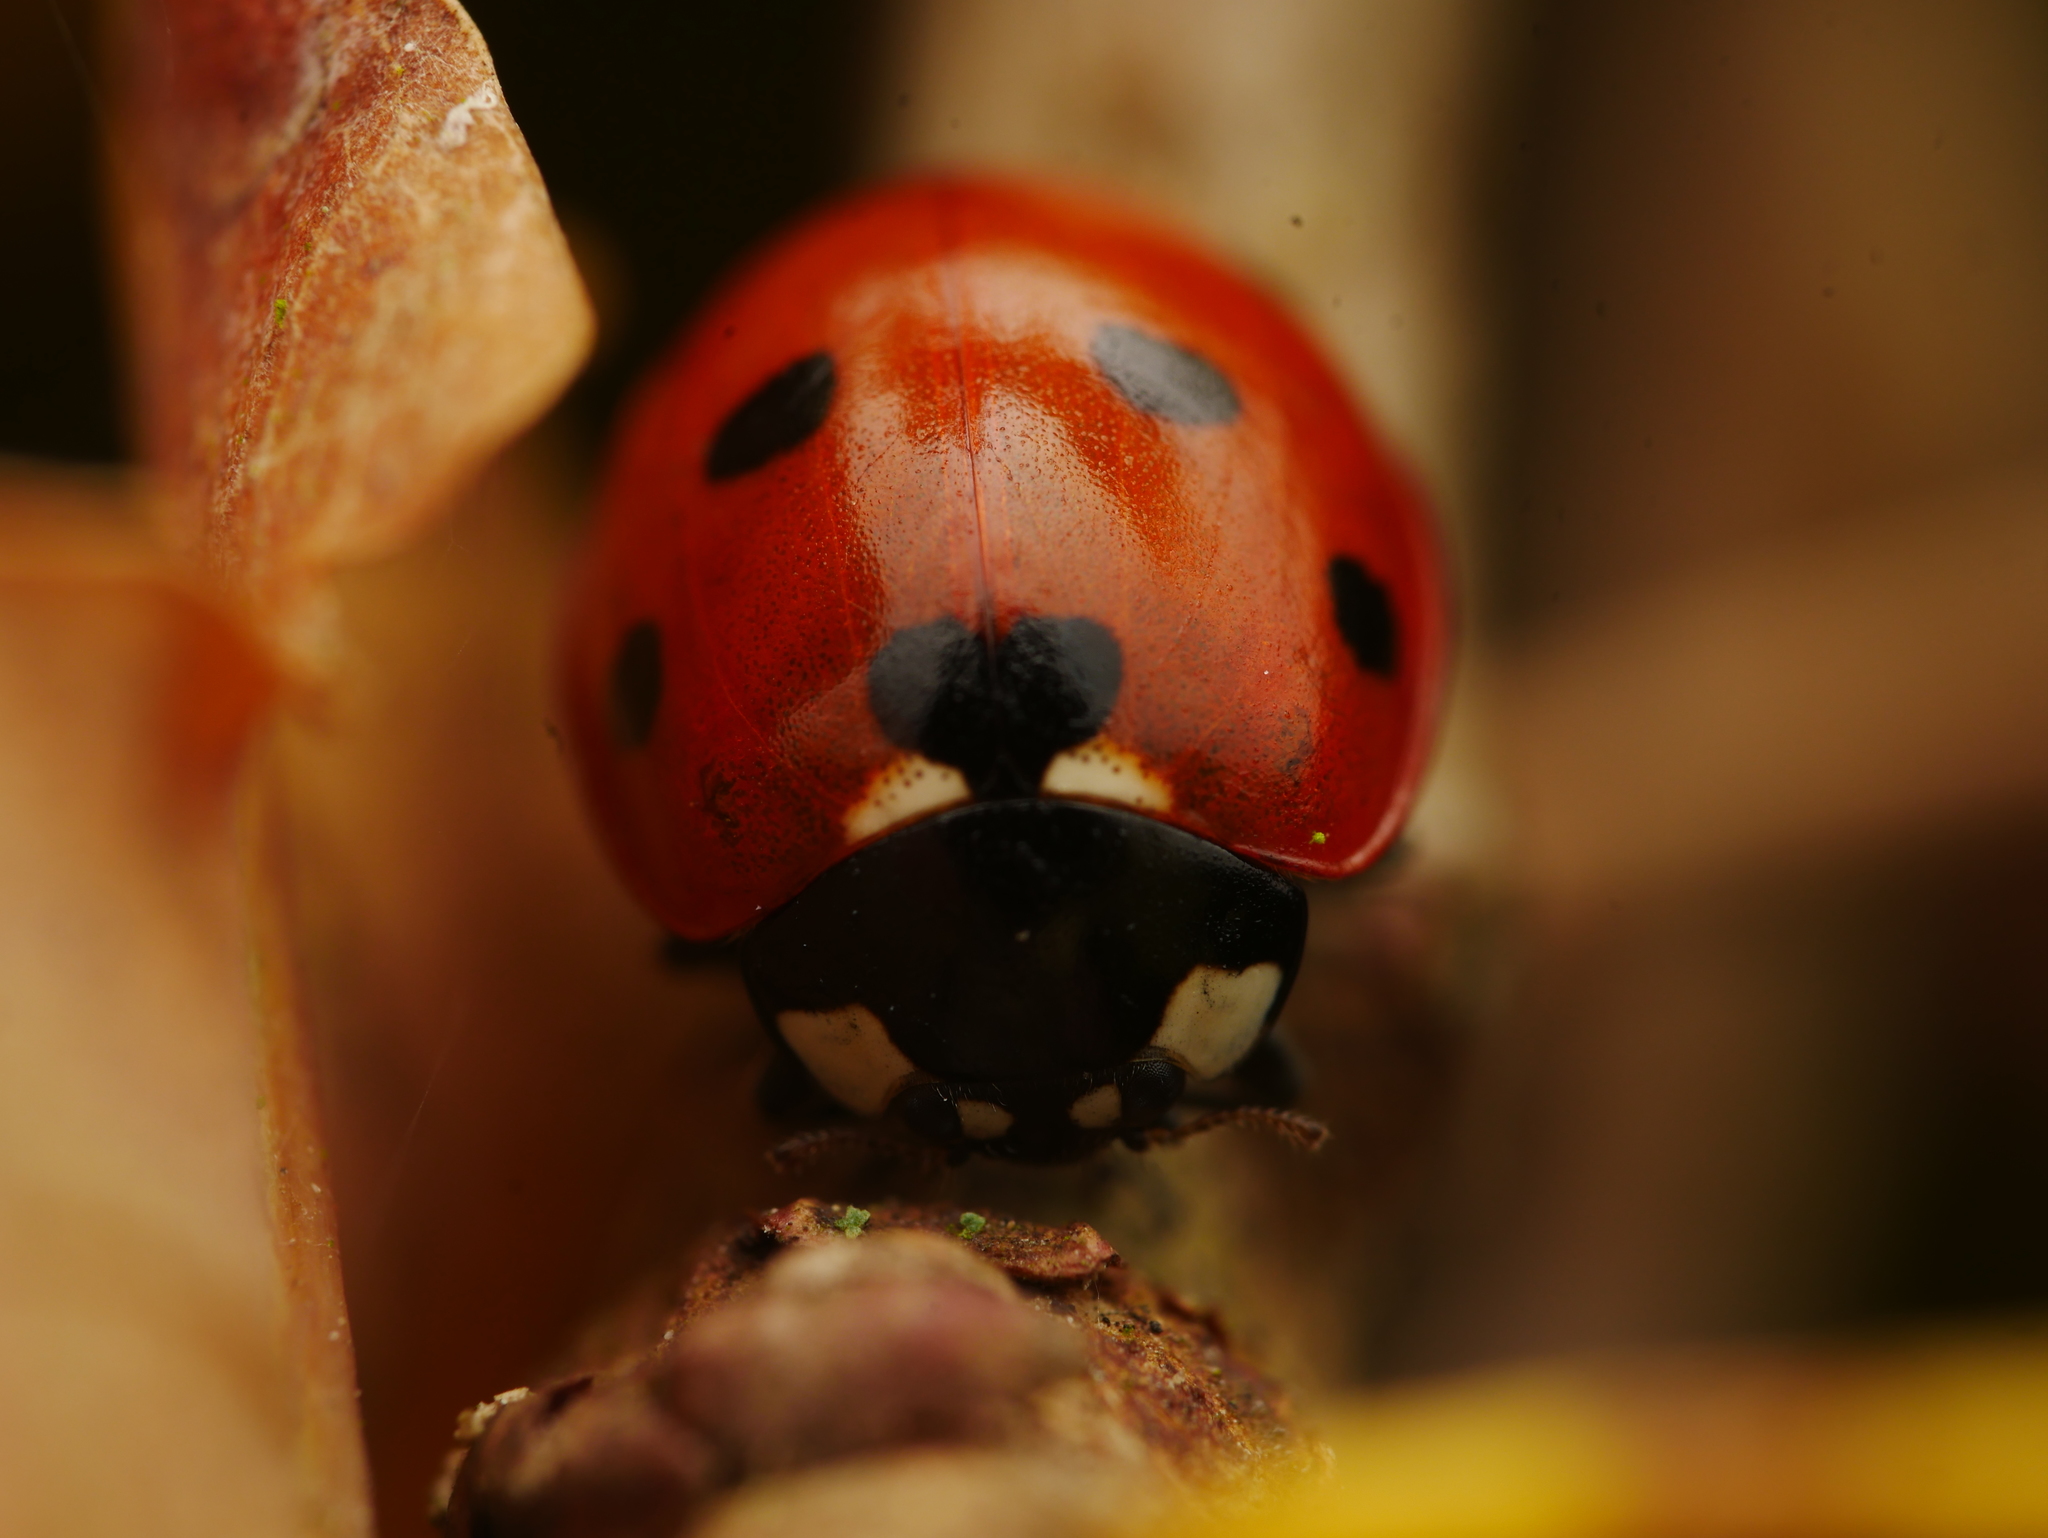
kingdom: Animalia
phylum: Arthropoda
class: Insecta
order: Coleoptera
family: Coccinellidae
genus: Coccinella
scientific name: Coccinella septempunctata
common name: Sevenspotted lady beetle
